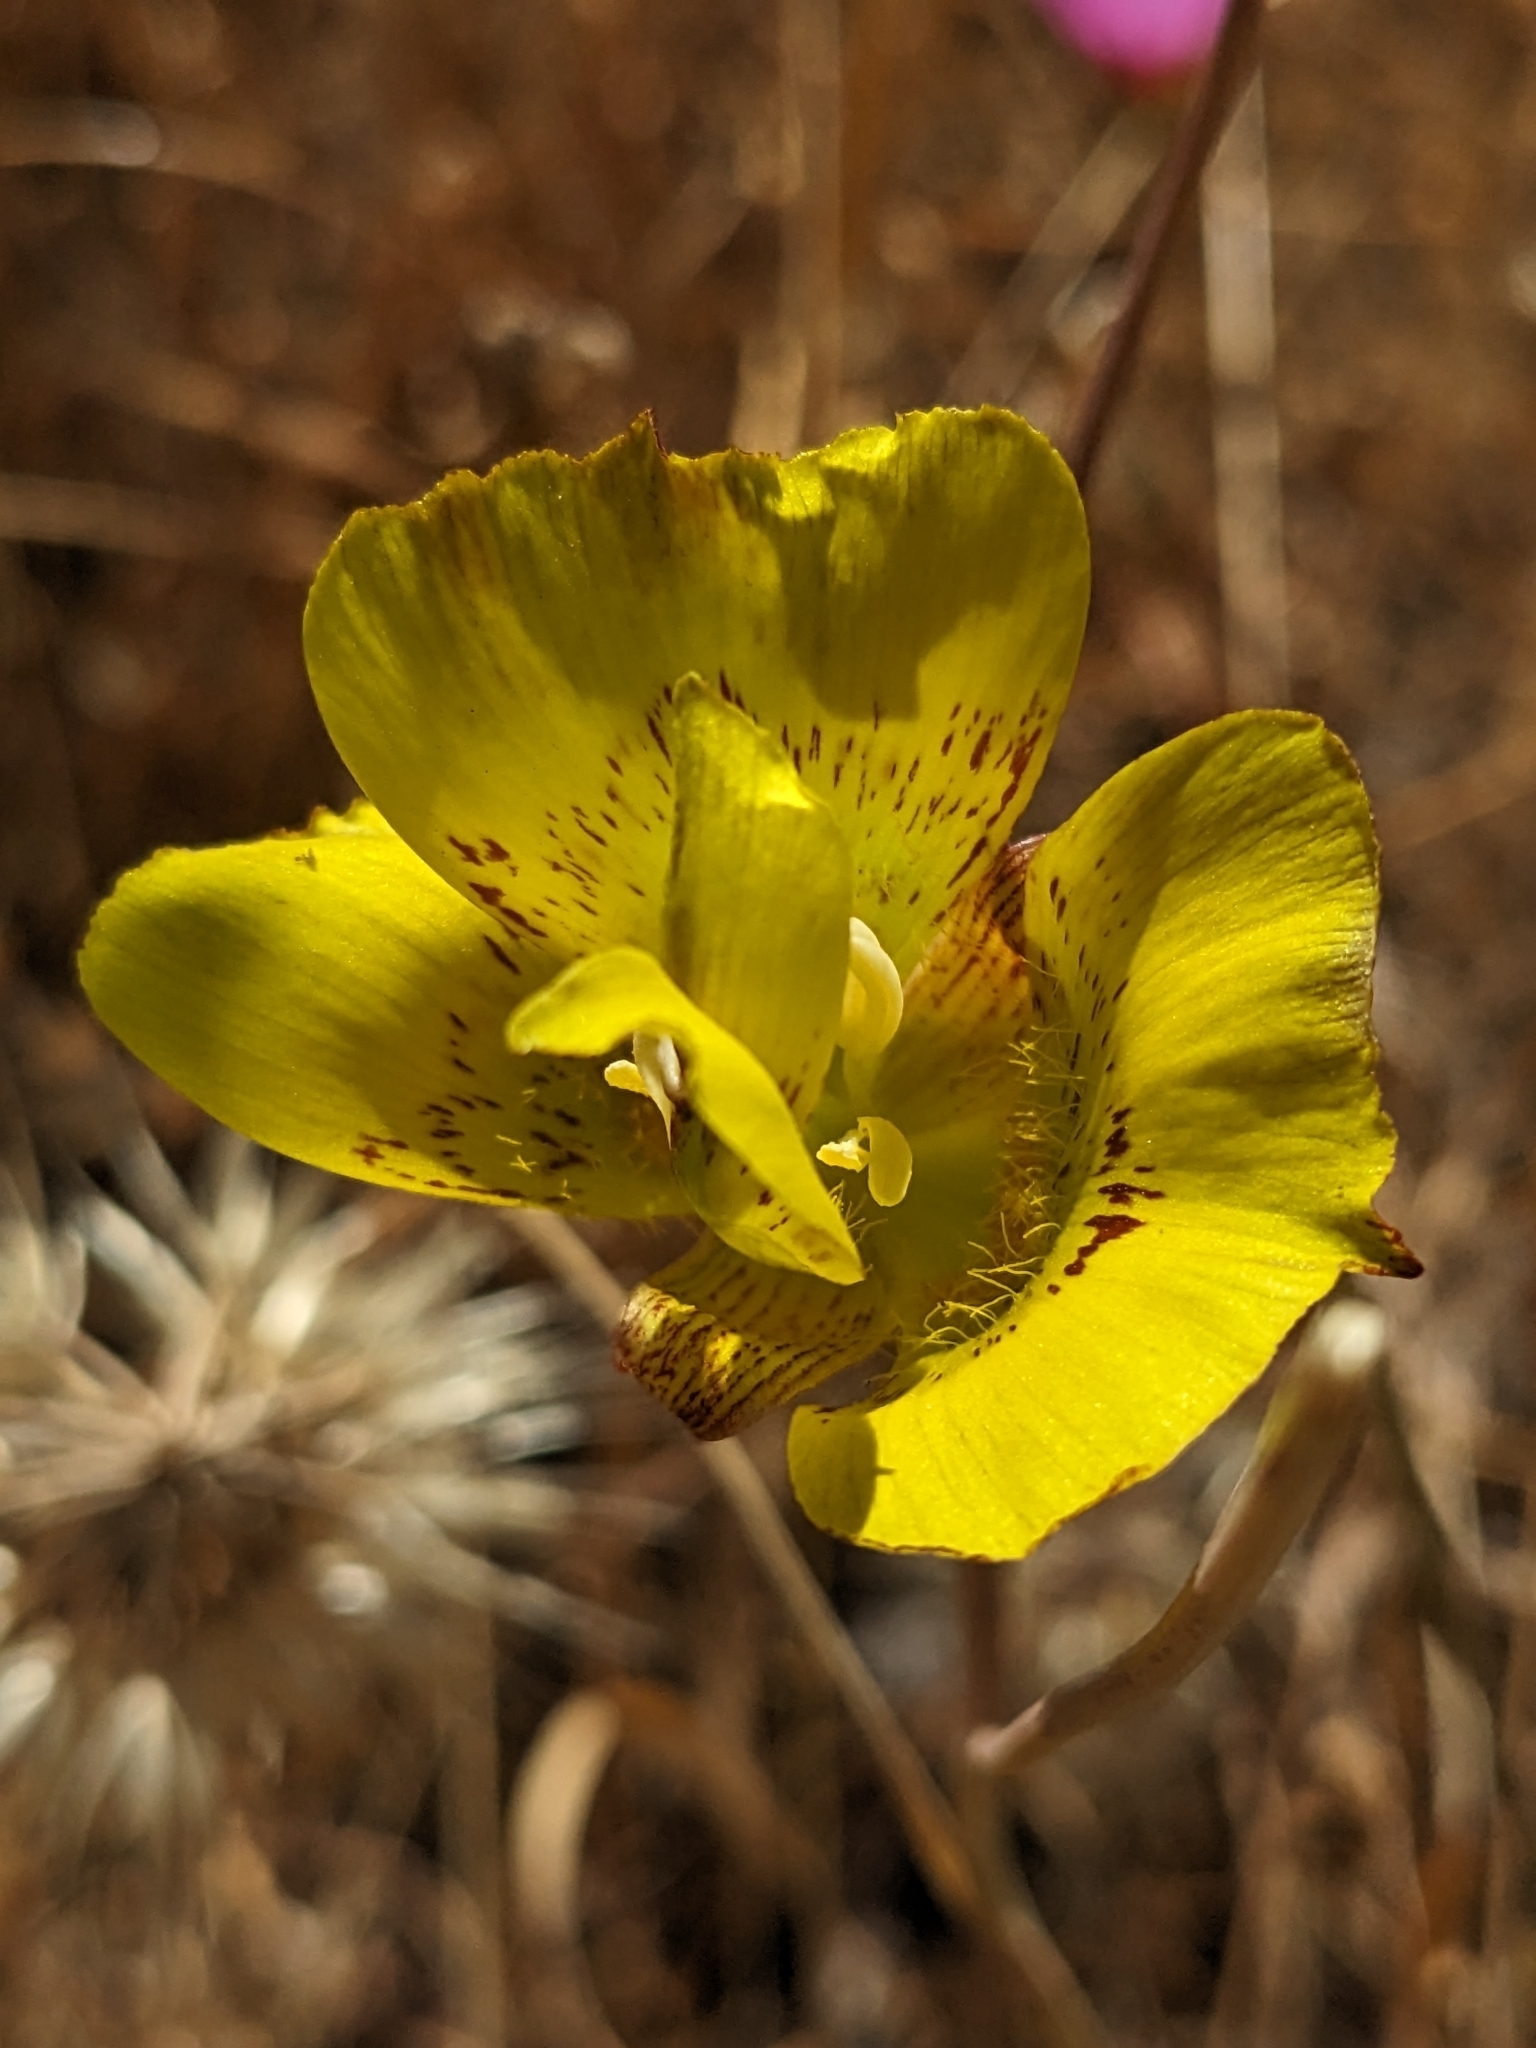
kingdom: Plantae
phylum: Tracheophyta
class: Liliopsida
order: Liliales
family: Liliaceae
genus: Calochortus
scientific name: Calochortus luteus
